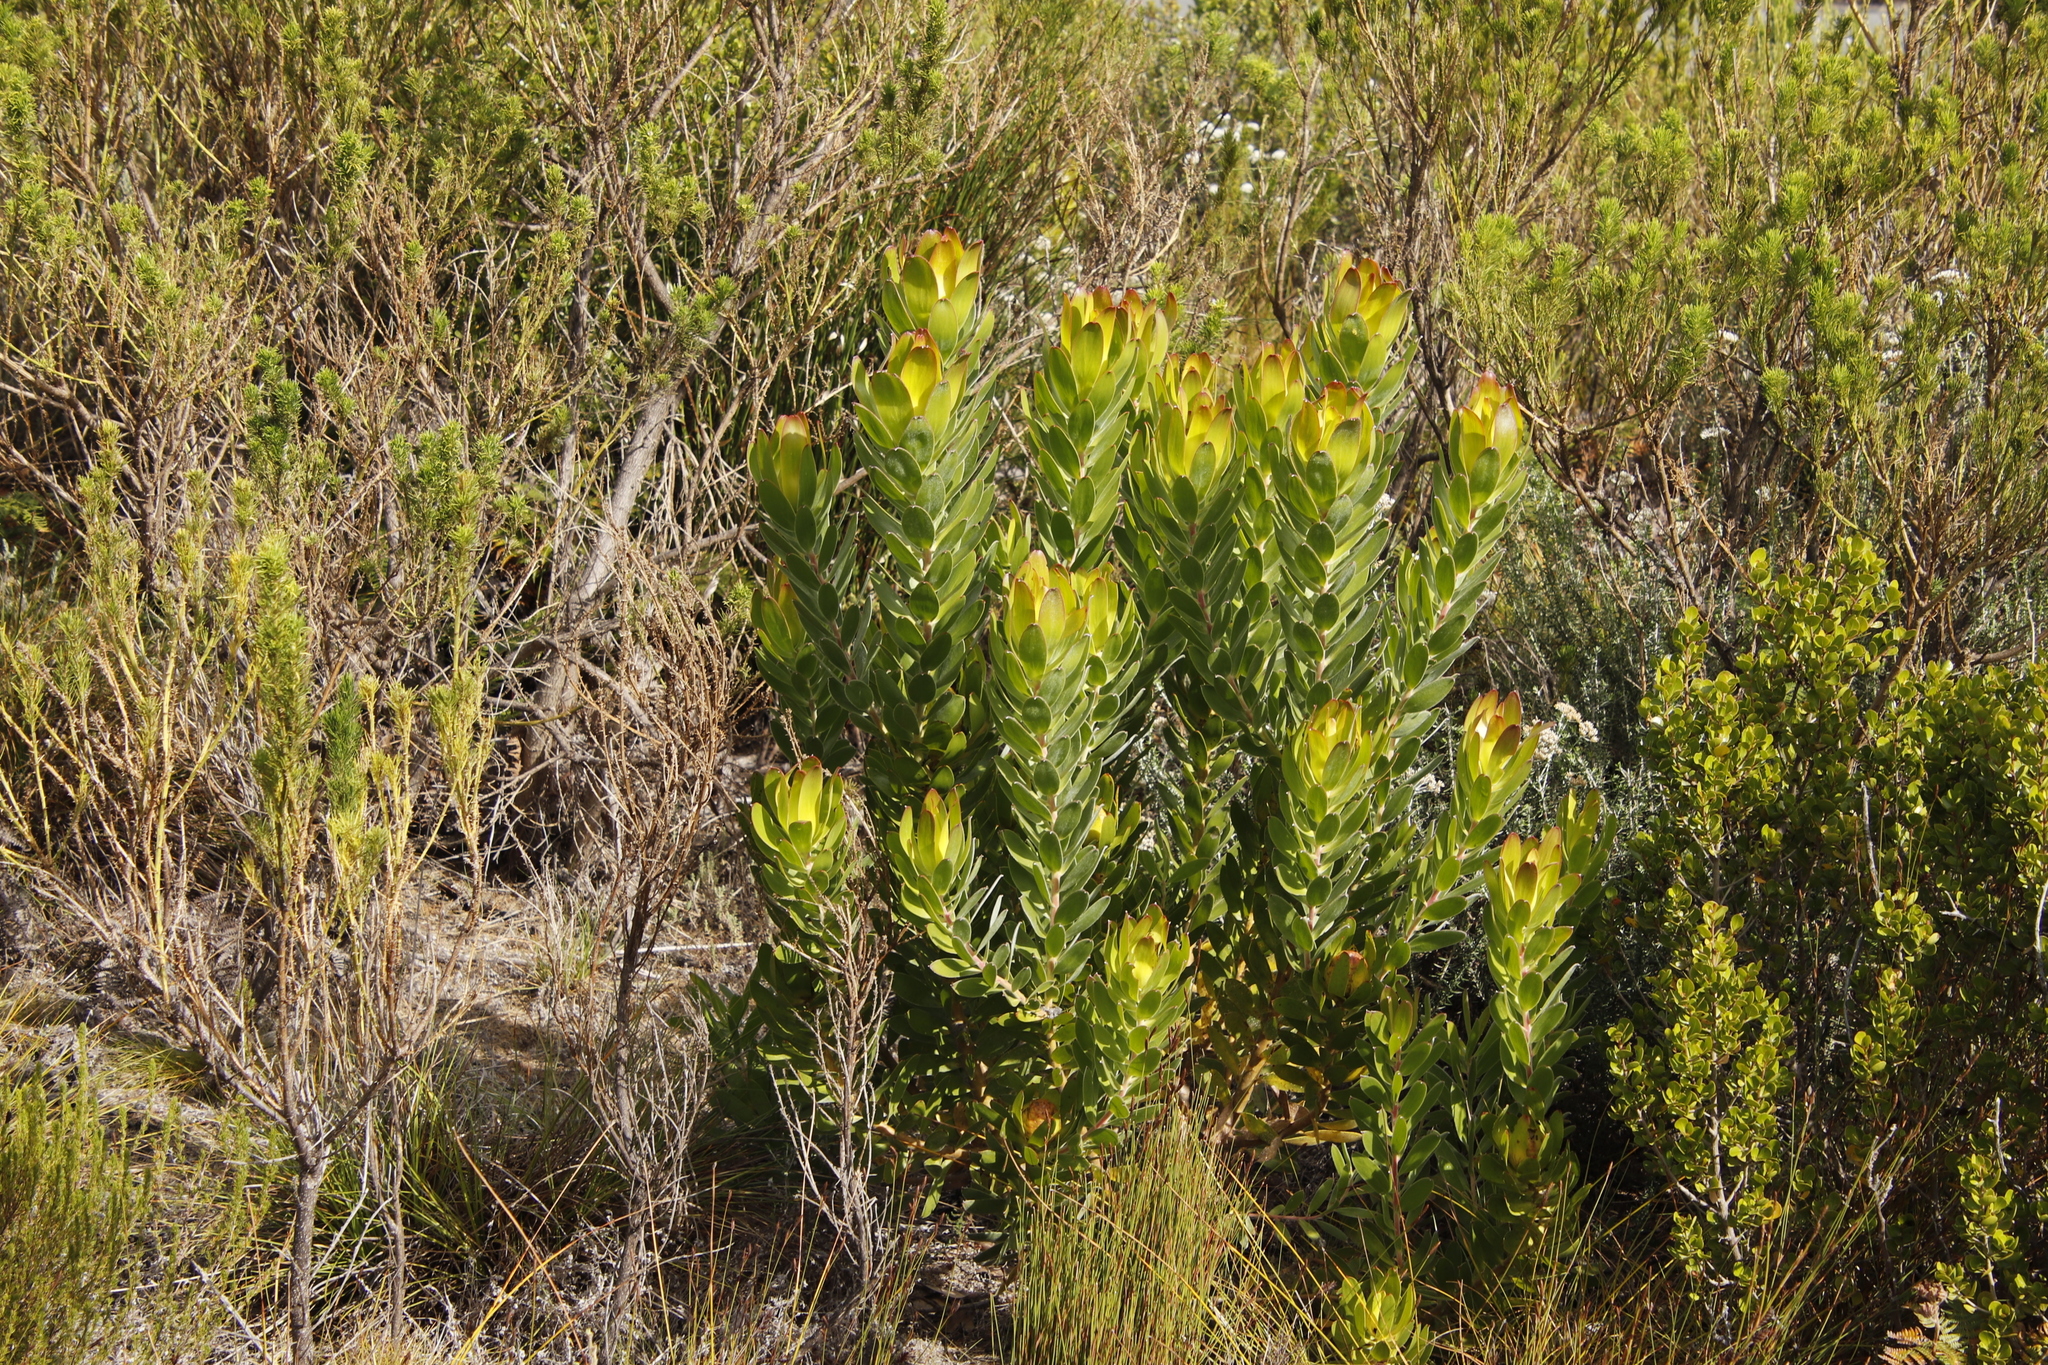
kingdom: Plantae
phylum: Tracheophyta
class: Magnoliopsida
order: Proteales
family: Proteaceae
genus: Leucadendron
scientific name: Leucadendron laureolum
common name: Golden sunshinebush
